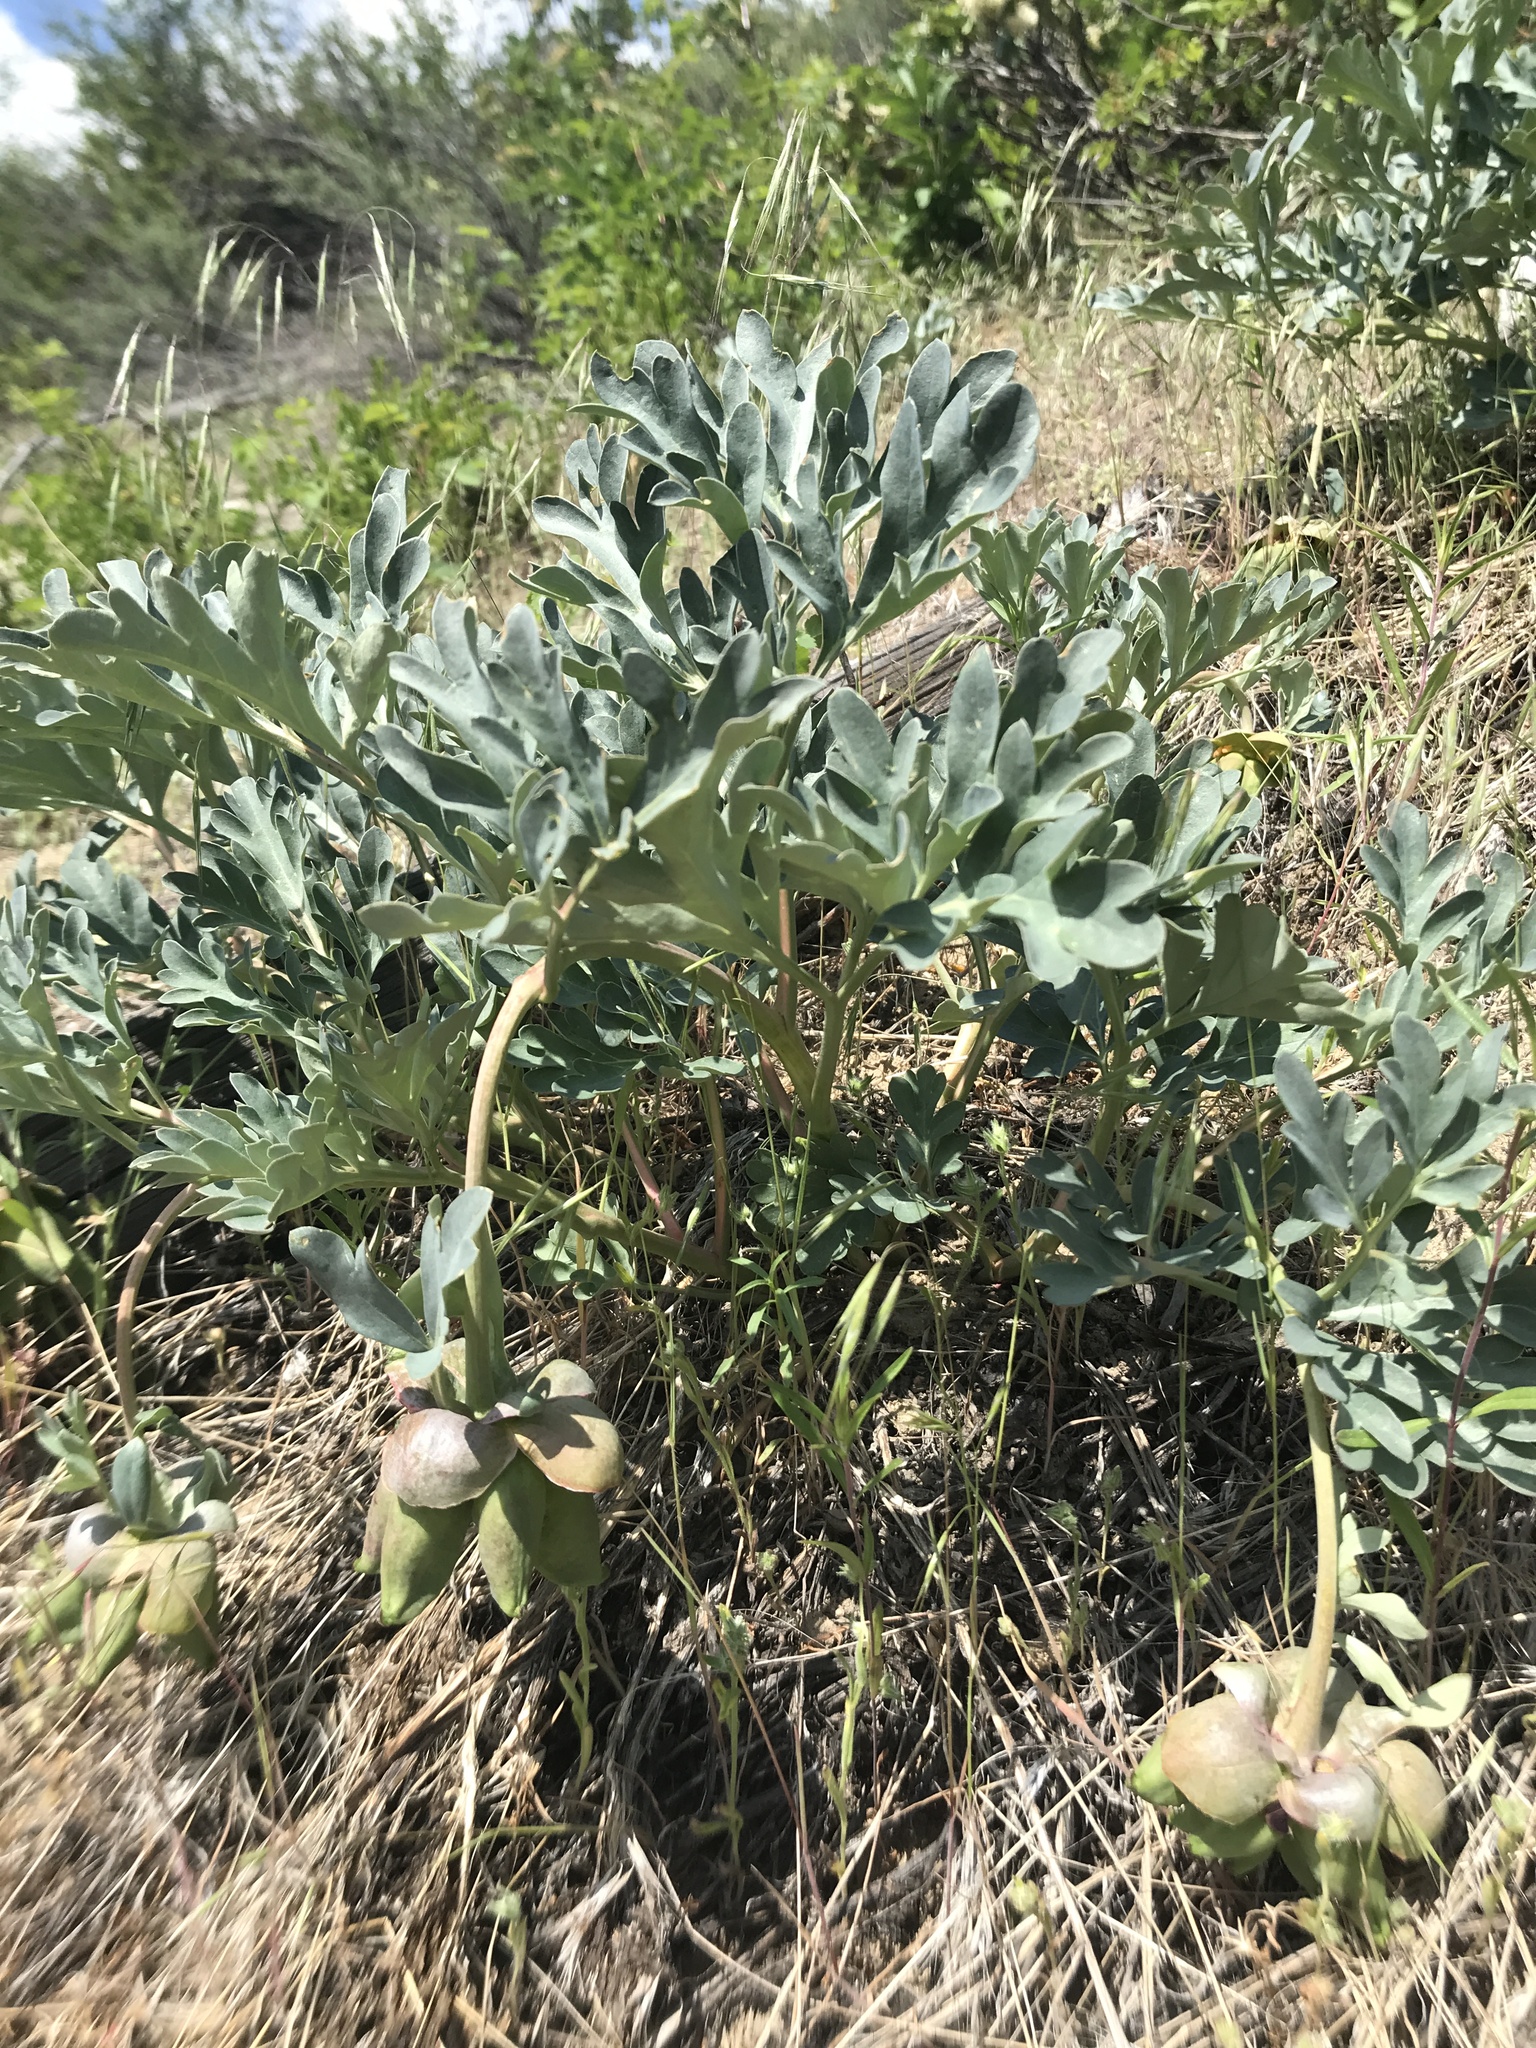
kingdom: Plantae
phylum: Tracheophyta
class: Magnoliopsida
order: Saxifragales
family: Paeoniaceae
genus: Paeonia
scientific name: Paeonia brownii
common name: Brown's peony
